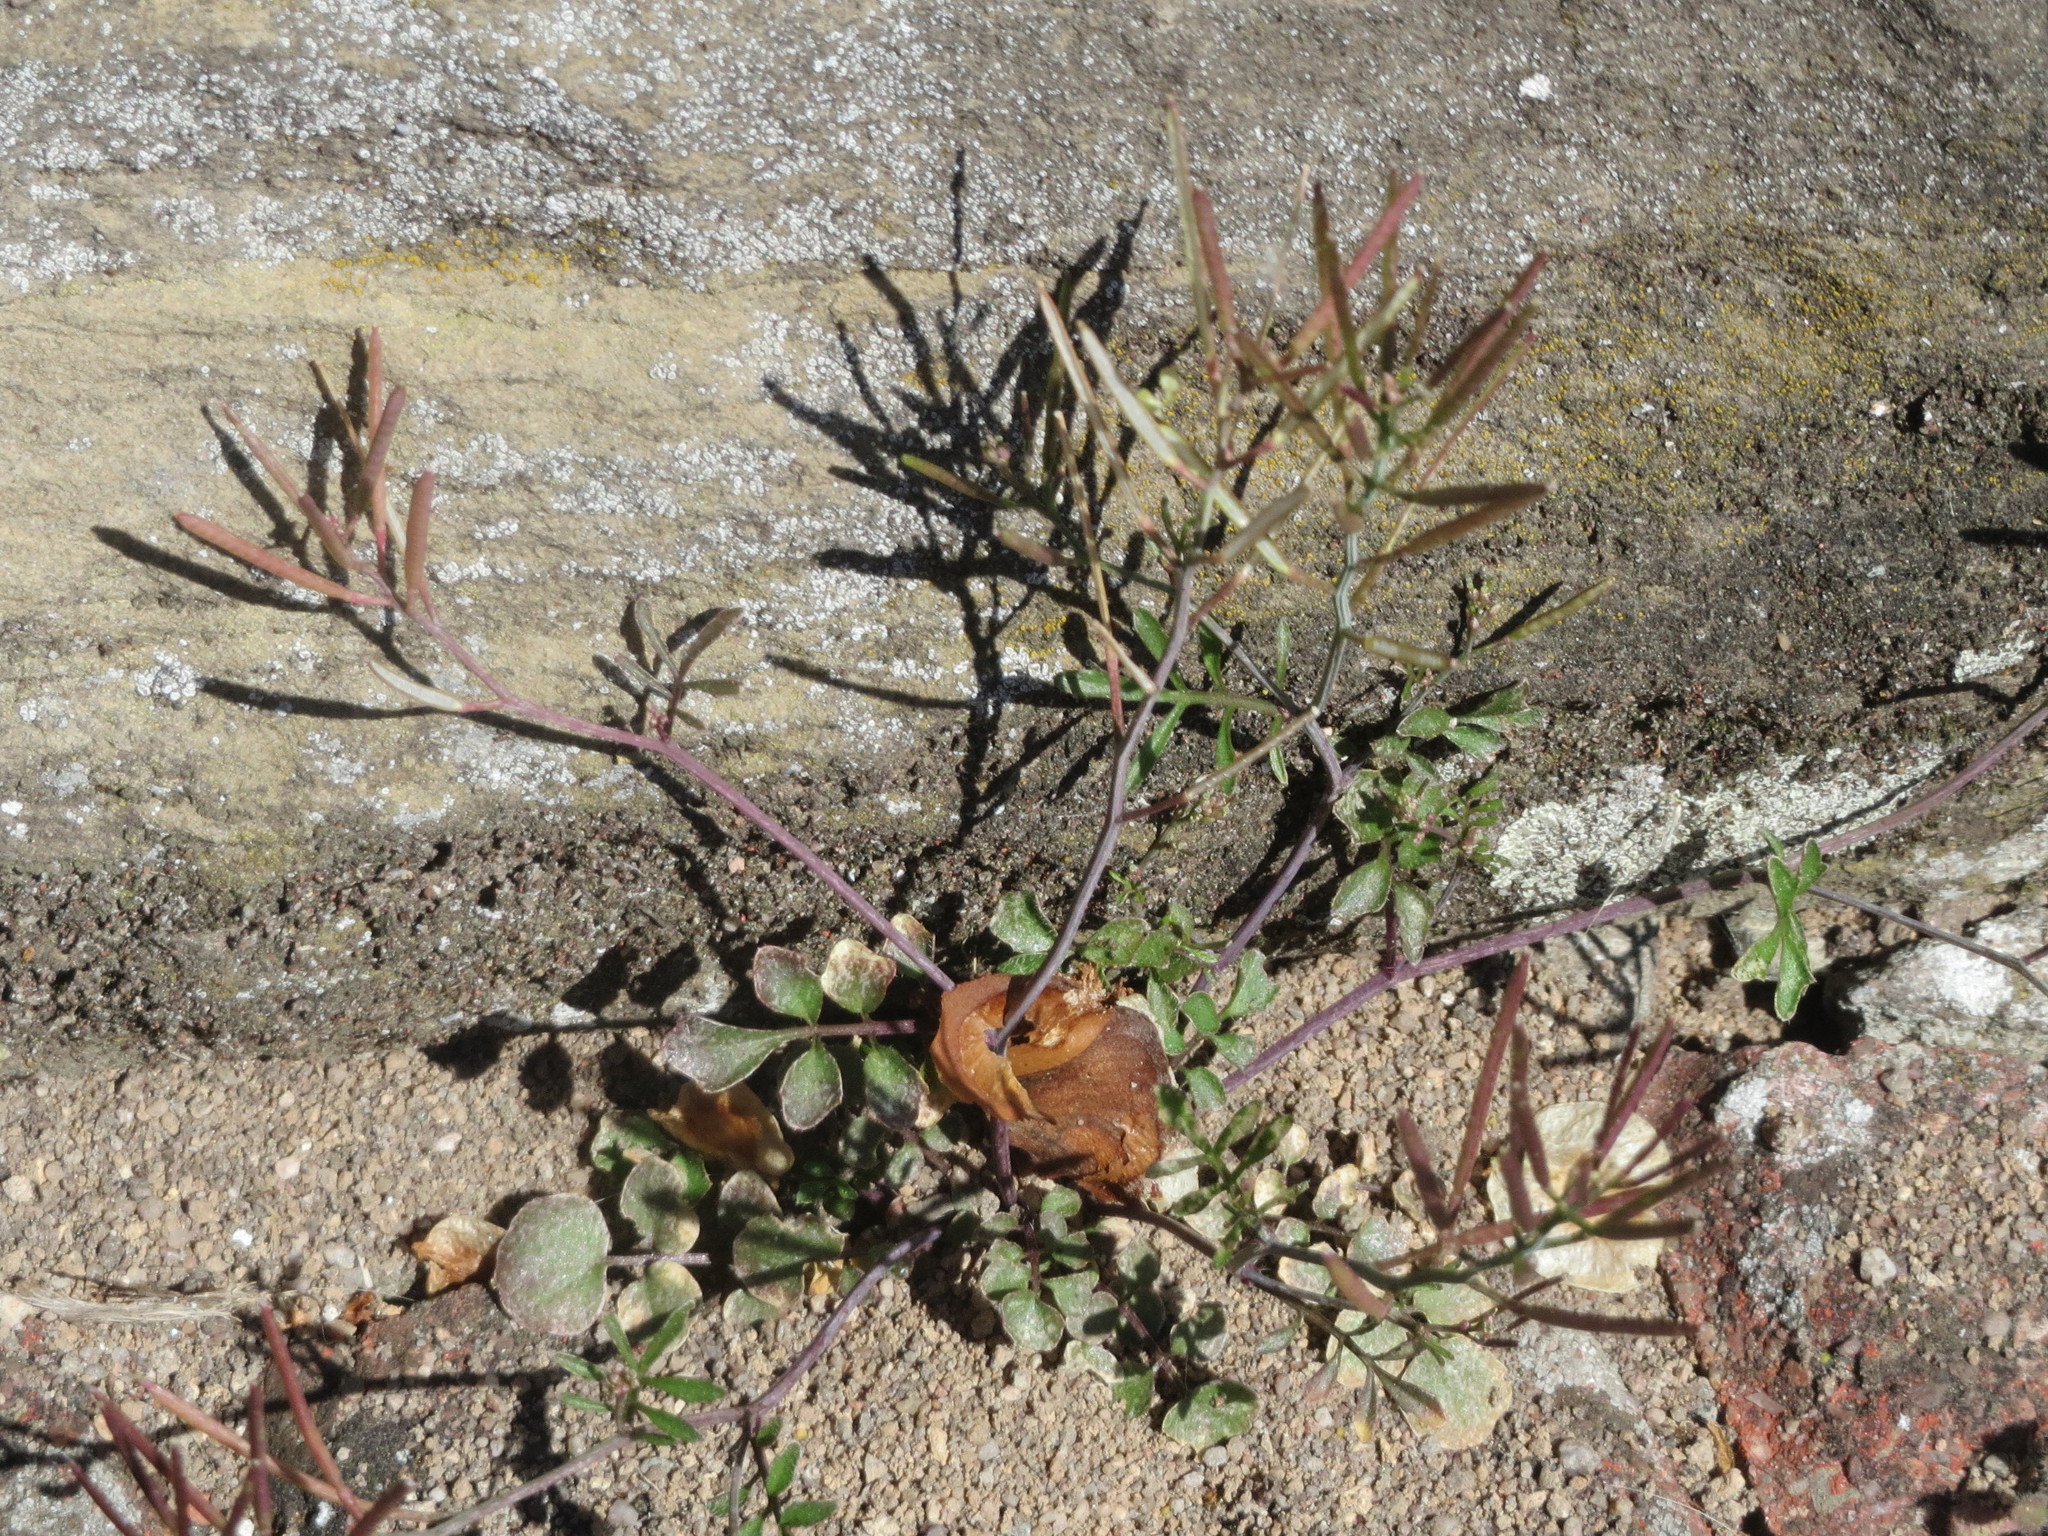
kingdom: Plantae
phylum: Tracheophyta
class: Magnoliopsida
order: Brassicales
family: Brassicaceae
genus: Cardamine
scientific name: Cardamine hirsuta
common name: Hairy bittercress
